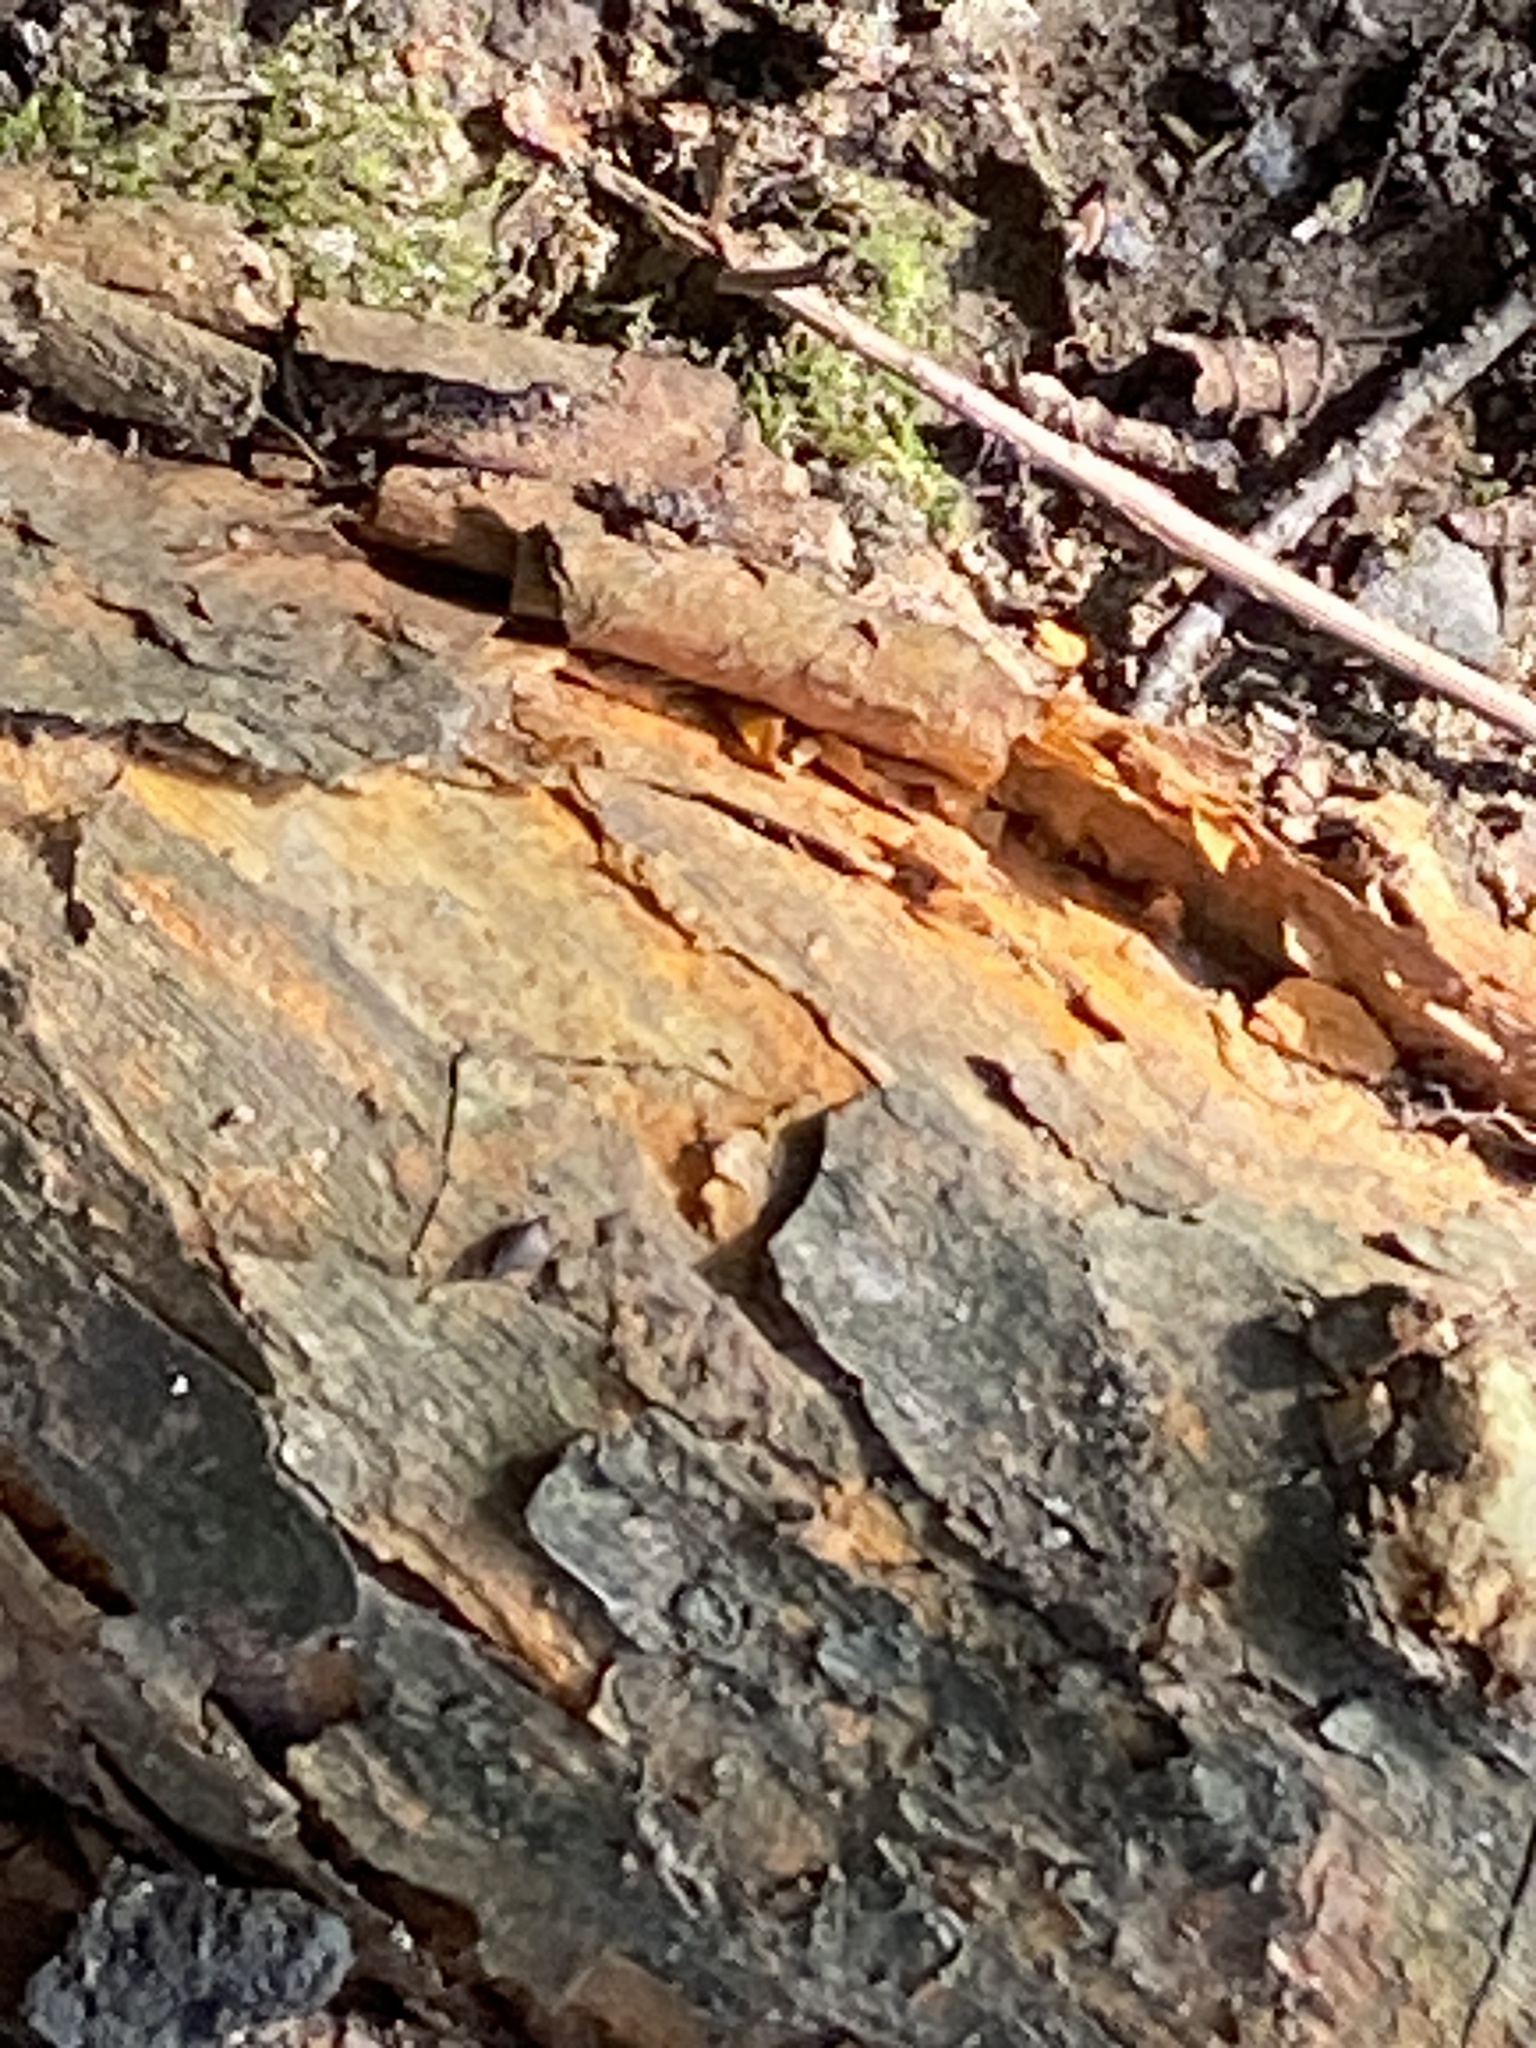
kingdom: Plantae
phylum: Tracheophyta
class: Magnoliopsida
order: Rosales
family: Moraceae
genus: Maclura
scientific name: Maclura pomifera
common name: Osage-orange
